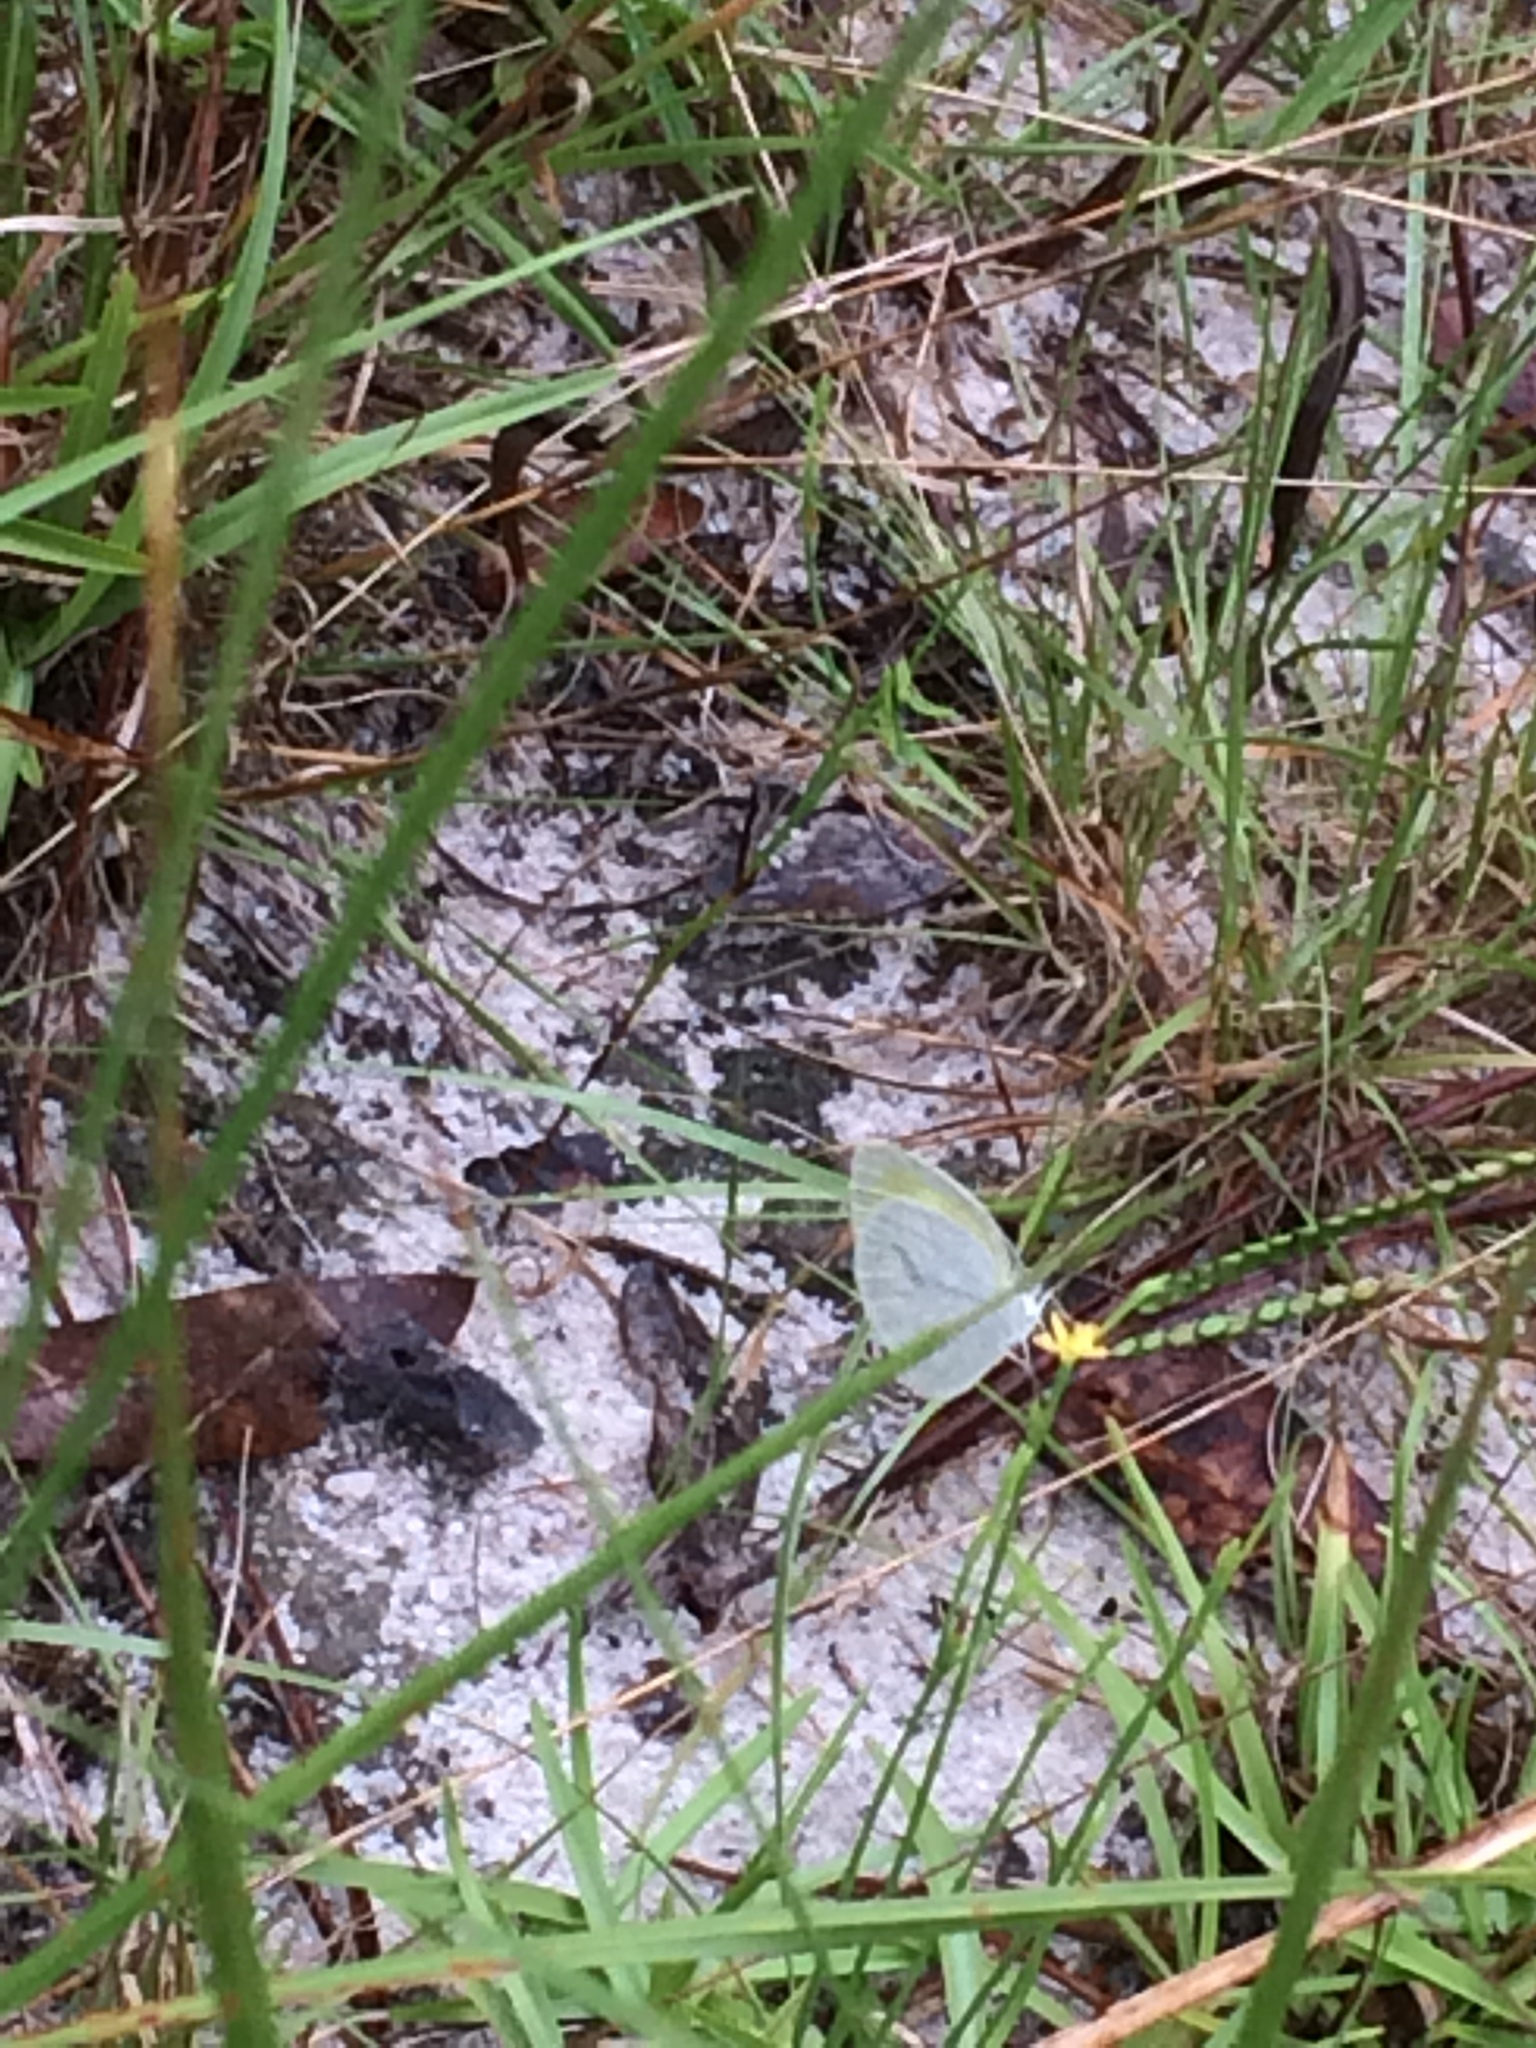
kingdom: Animalia
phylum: Arthropoda
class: Insecta
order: Lepidoptera
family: Pieridae
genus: Eurema
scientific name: Eurema daira
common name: Barred sulphur
